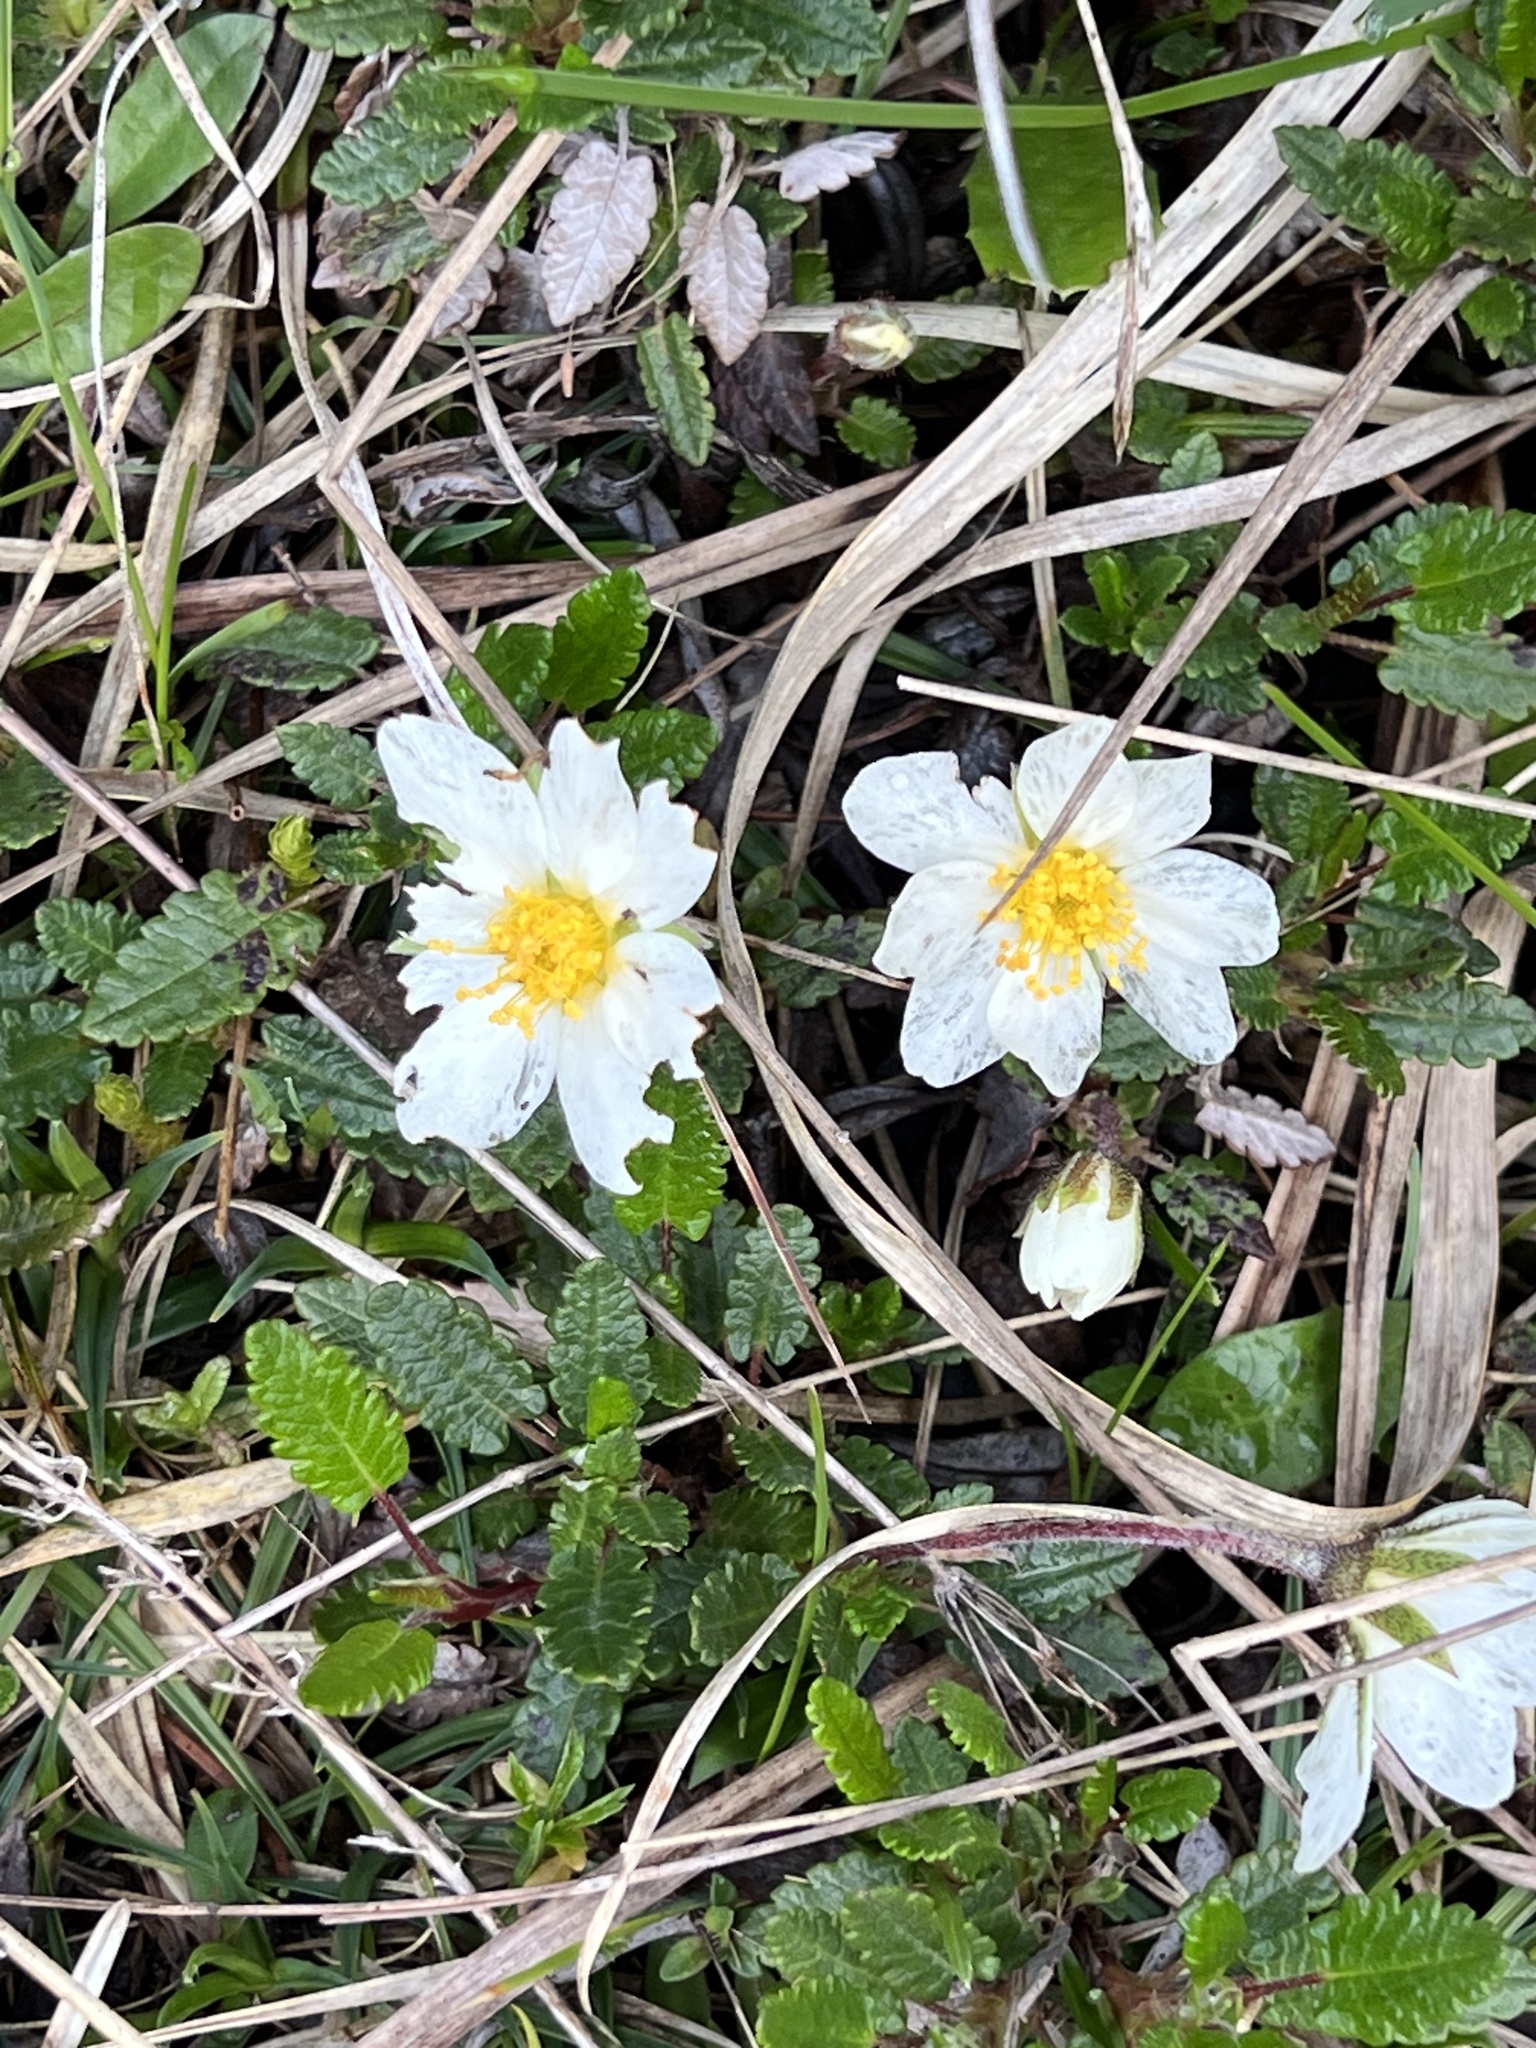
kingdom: Plantae
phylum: Tracheophyta
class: Magnoliopsida
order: Rosales
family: Rosaceae
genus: Dryas
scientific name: Dryas octopetala
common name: Eight-petal mountain-avens
